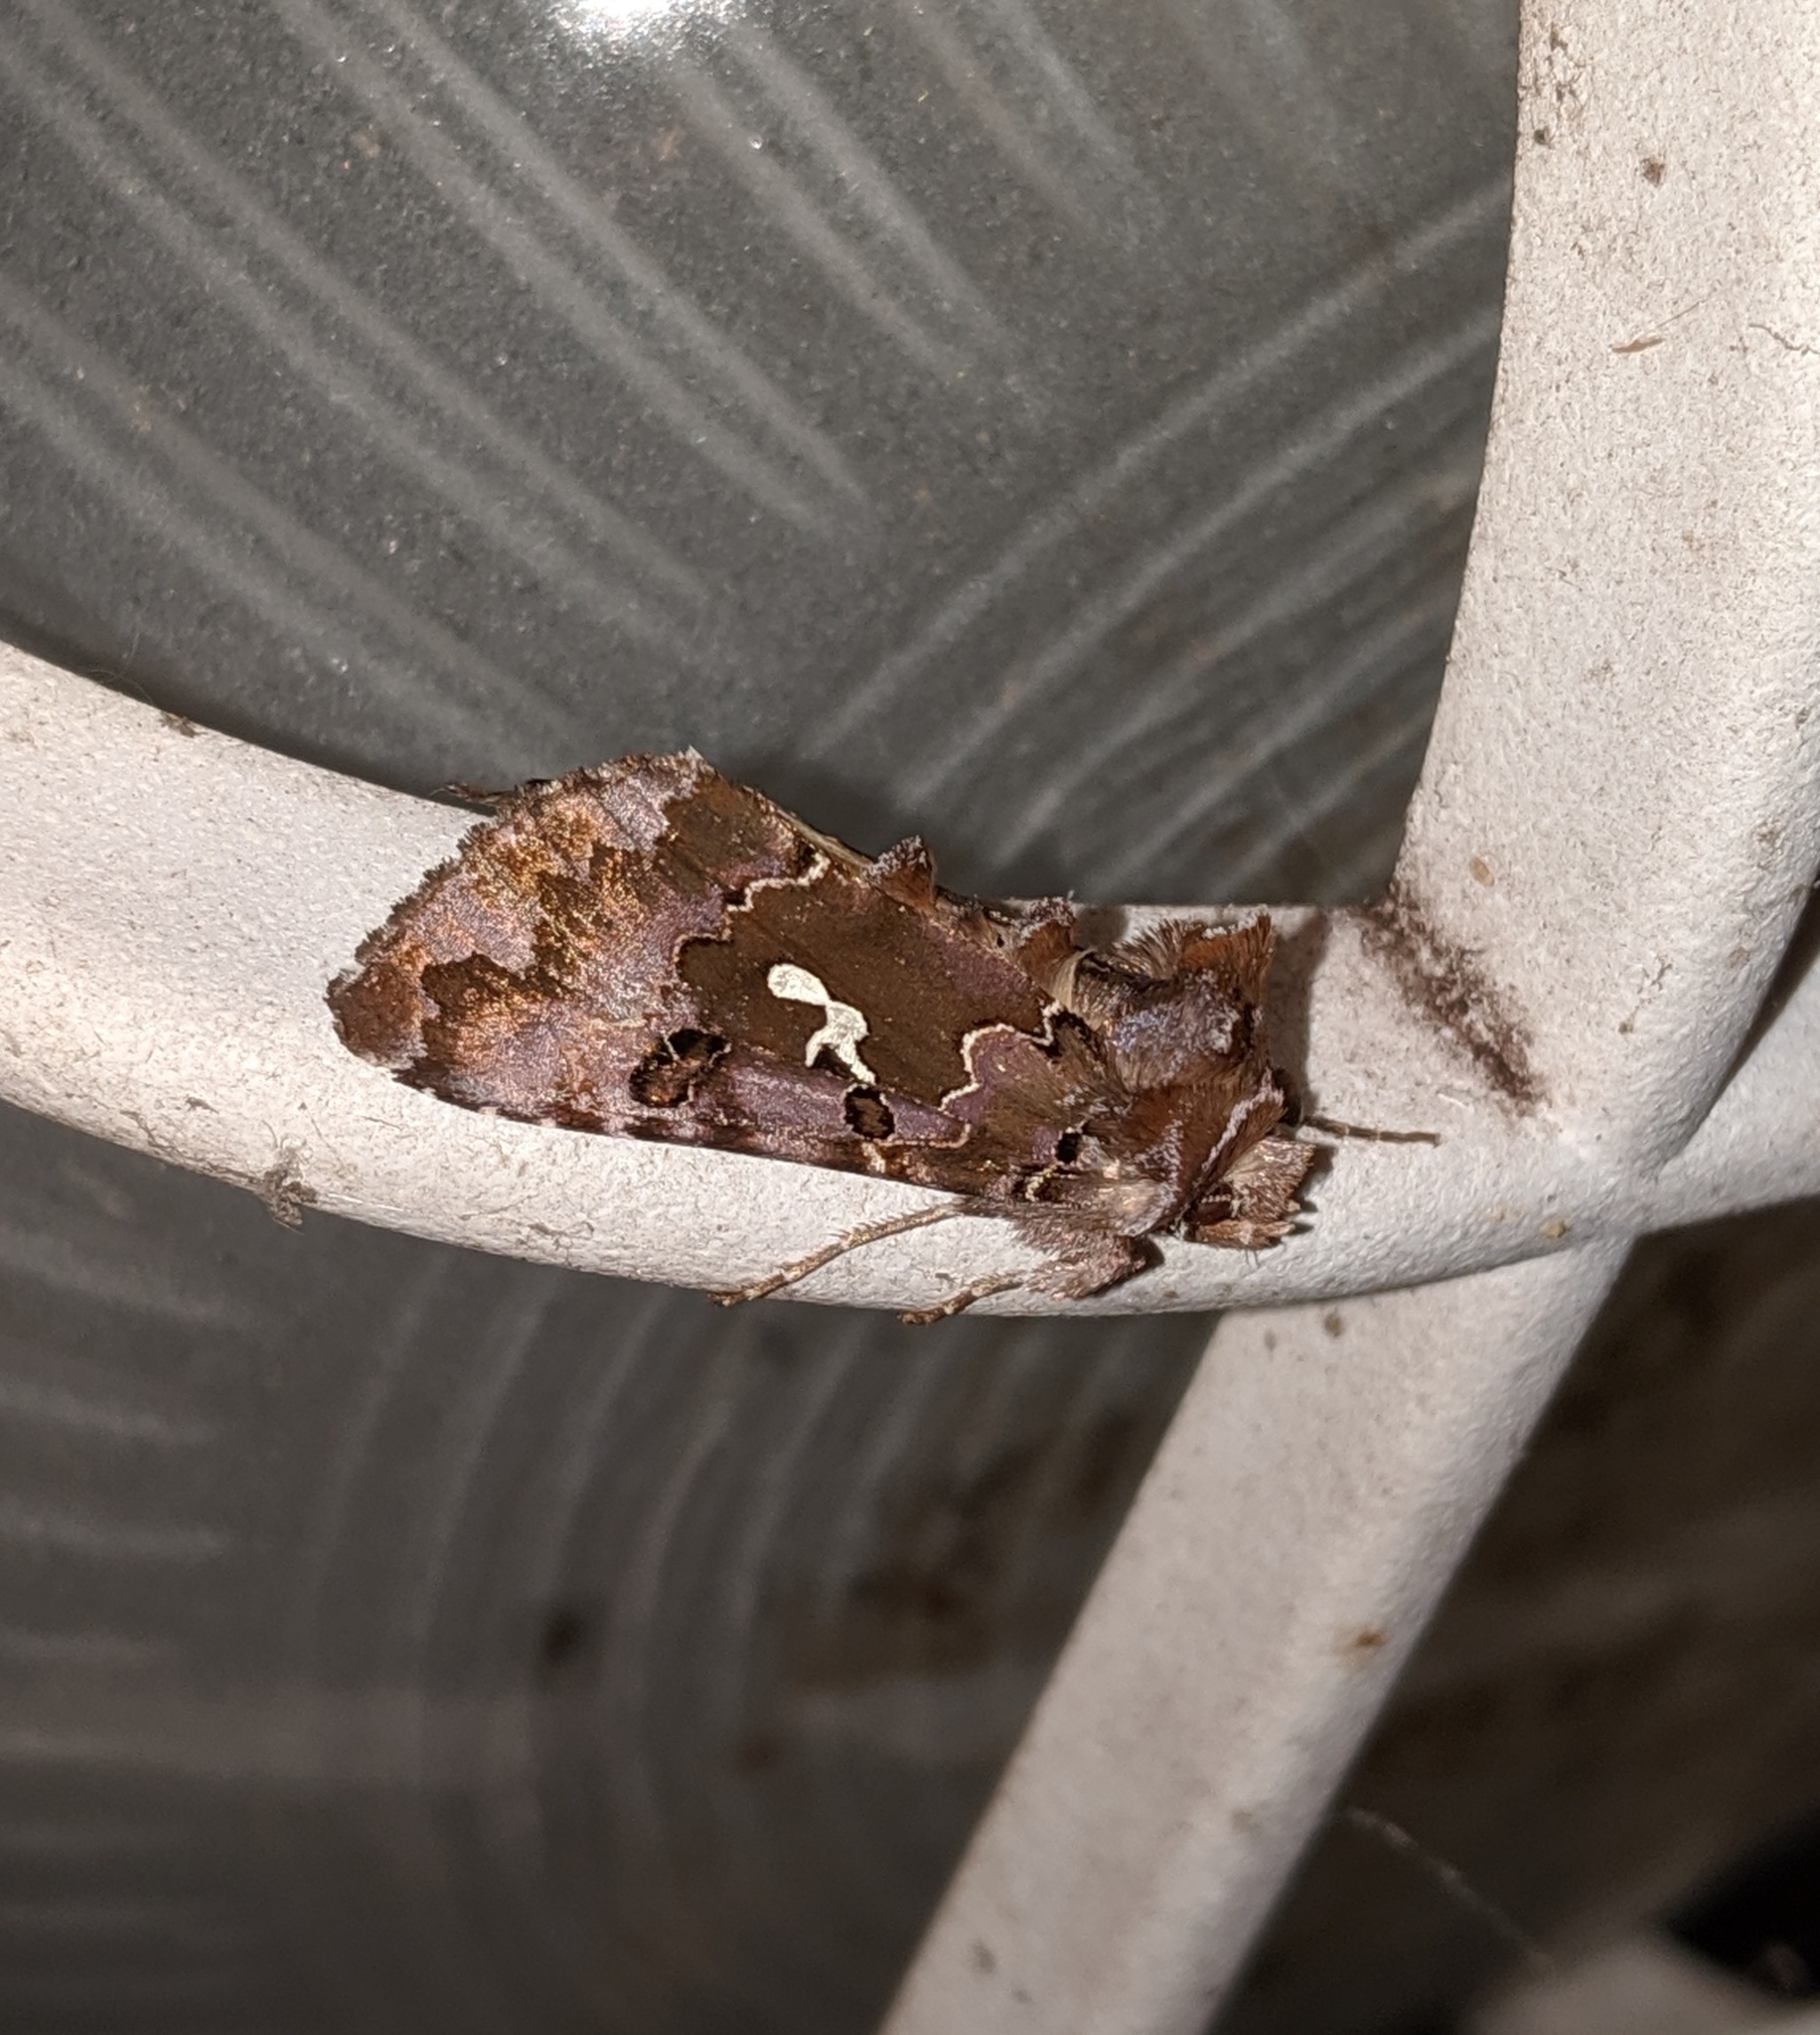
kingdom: Animalia
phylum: Arthropoda
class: Insecta
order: Lepidoptera
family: Noctuidae
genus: Autographa
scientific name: Autographa corusca
